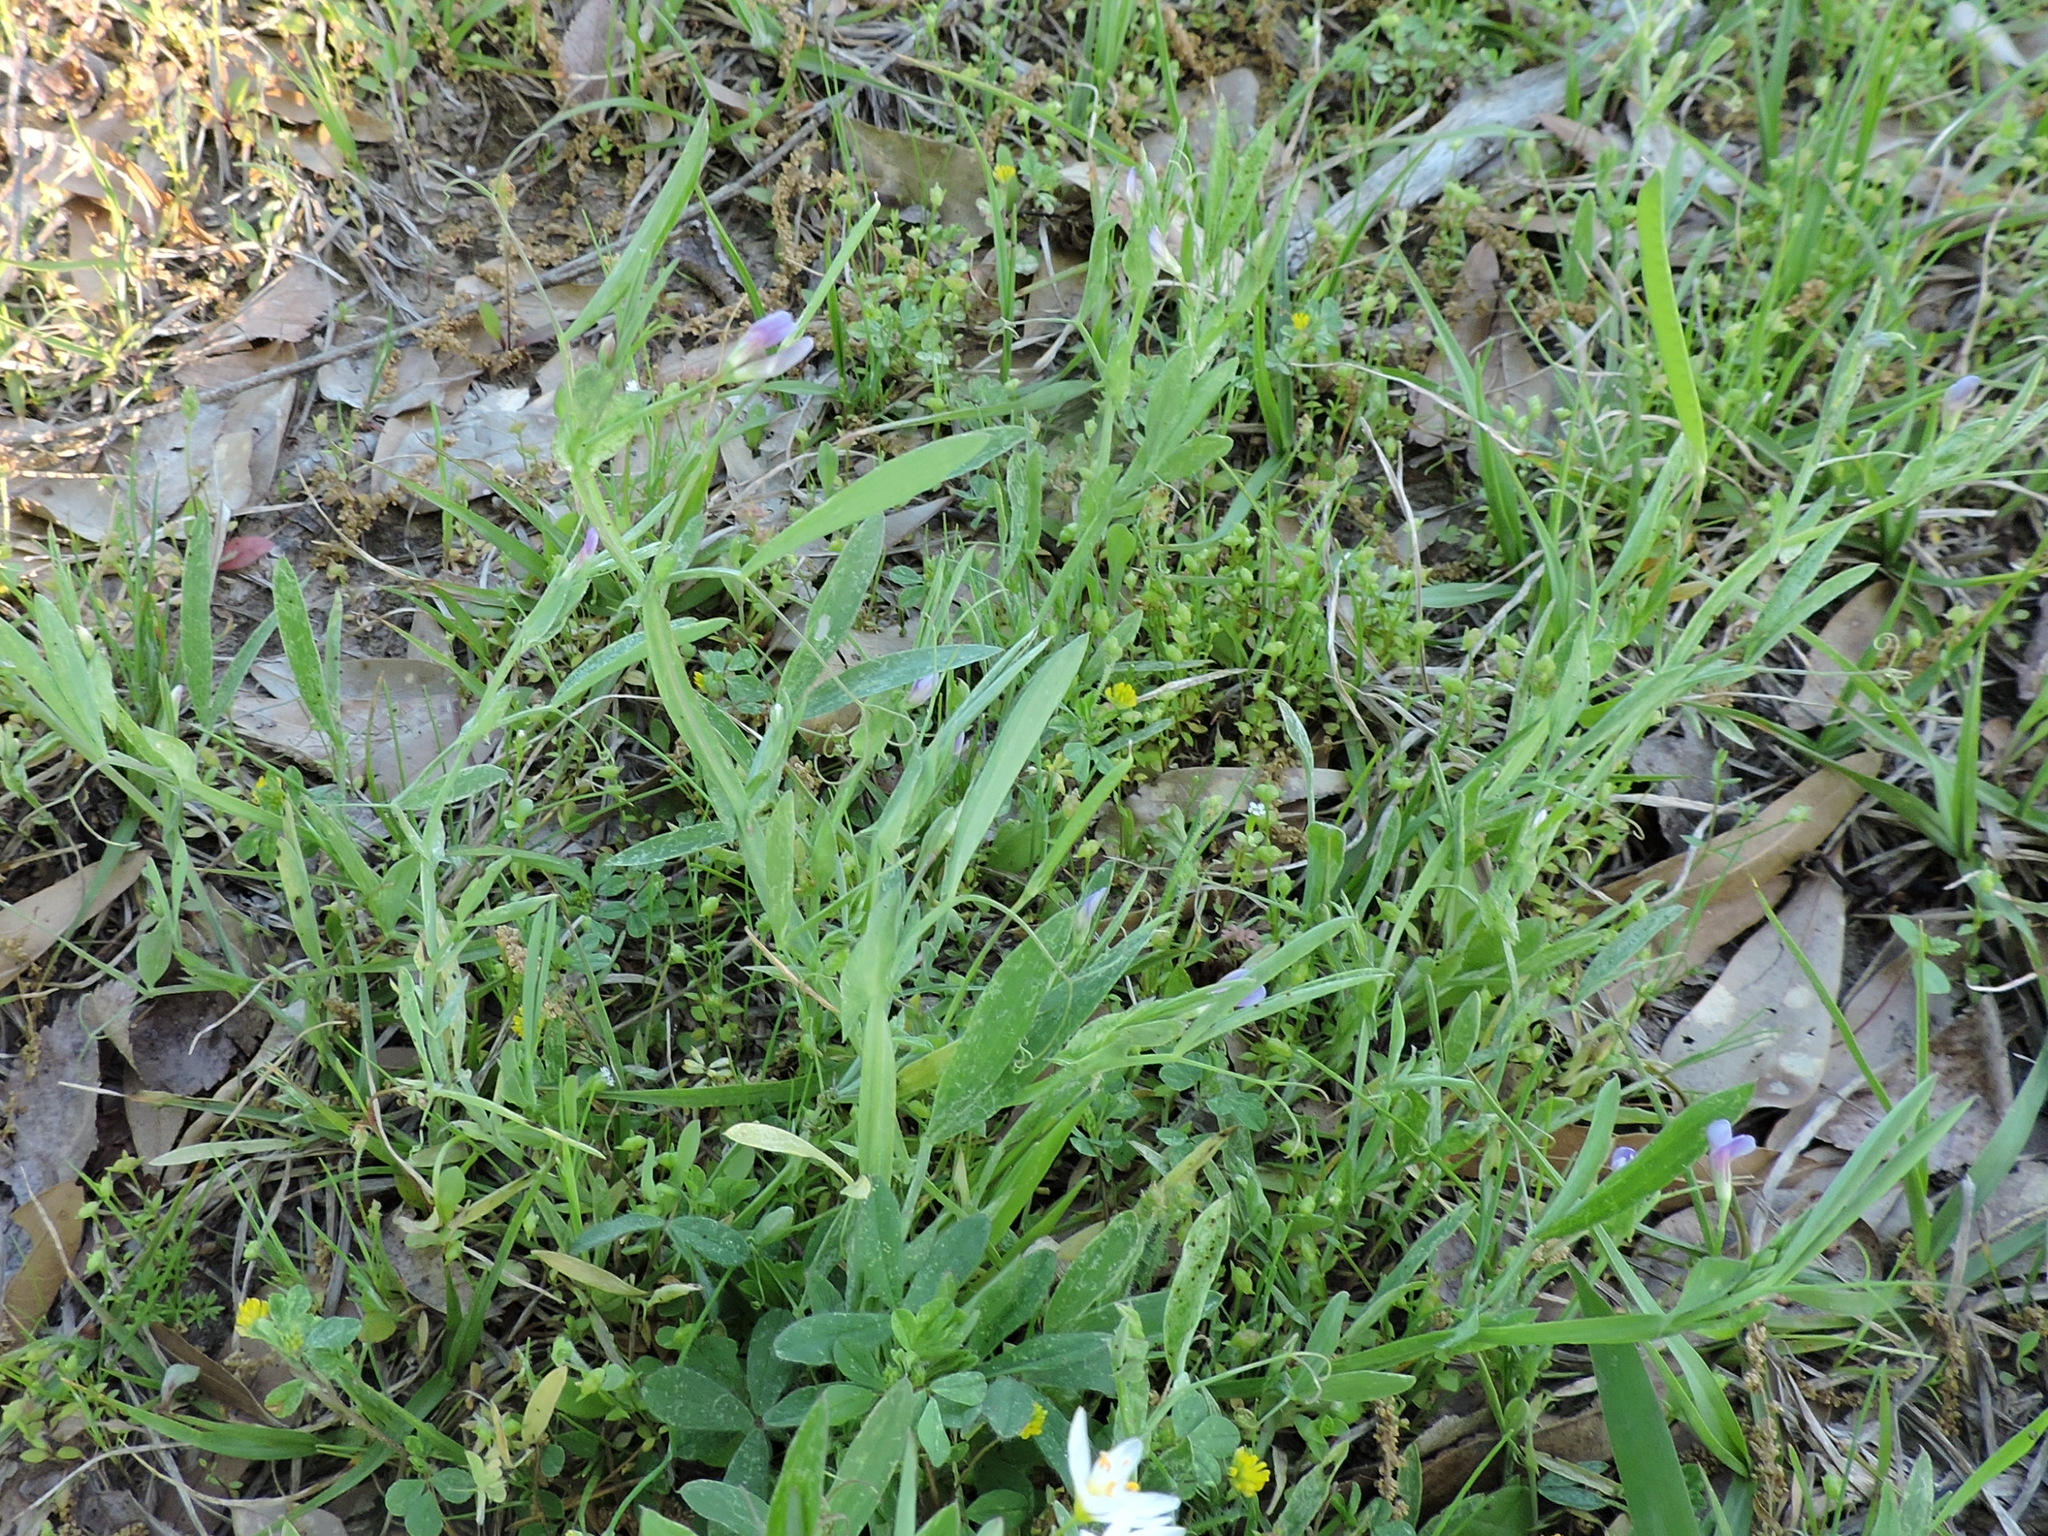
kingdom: Plantae
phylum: Tracheophyta
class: Magnoliopsida
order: Fabales
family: Fabaceae
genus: Lathyrus
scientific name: Lathyrus pusillus
